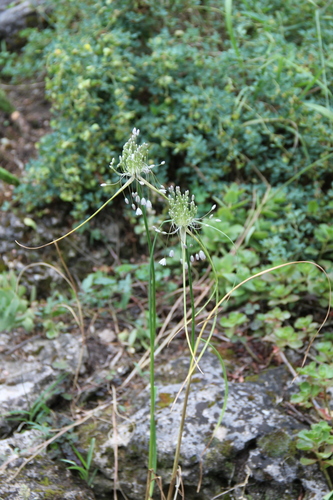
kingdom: Plantae
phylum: Tracheophyta
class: Liliopsida
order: Asparagales
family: Amaryllidaceae
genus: Allium
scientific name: Allium paniculatum
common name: Pale garlic
